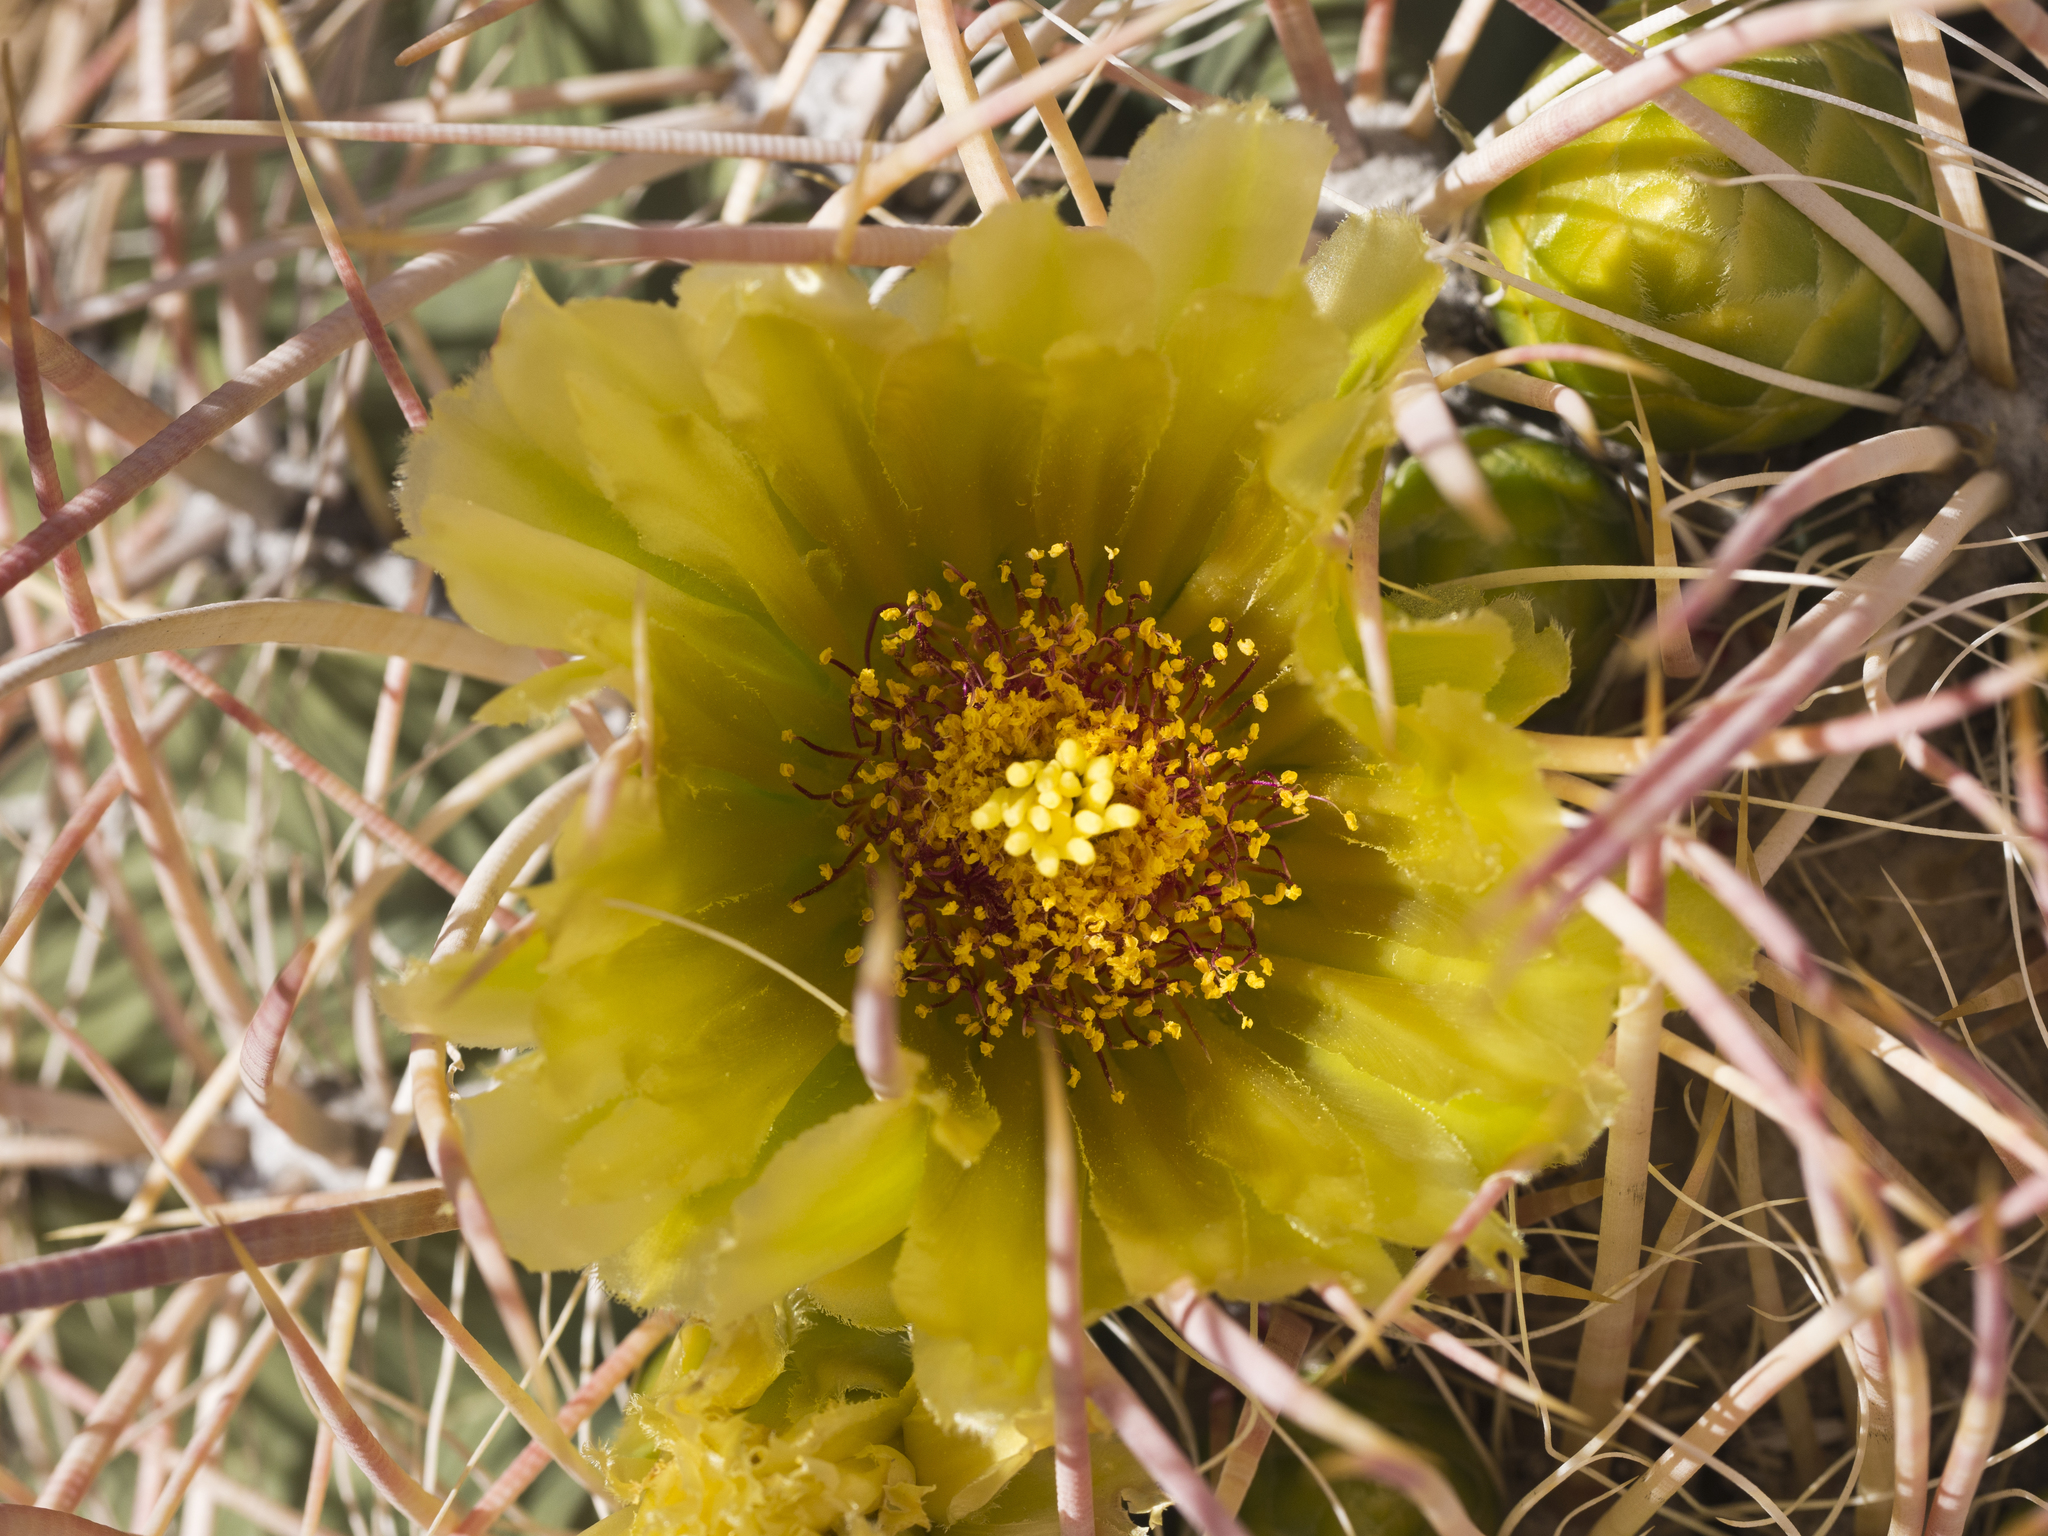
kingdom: Plantae
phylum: Tracheophyta
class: Magnoliopsida
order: Caryophyllales
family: Cactaceae
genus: Ferocactus
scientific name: Ferocactus cylindraceus
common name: California barrel cactus
